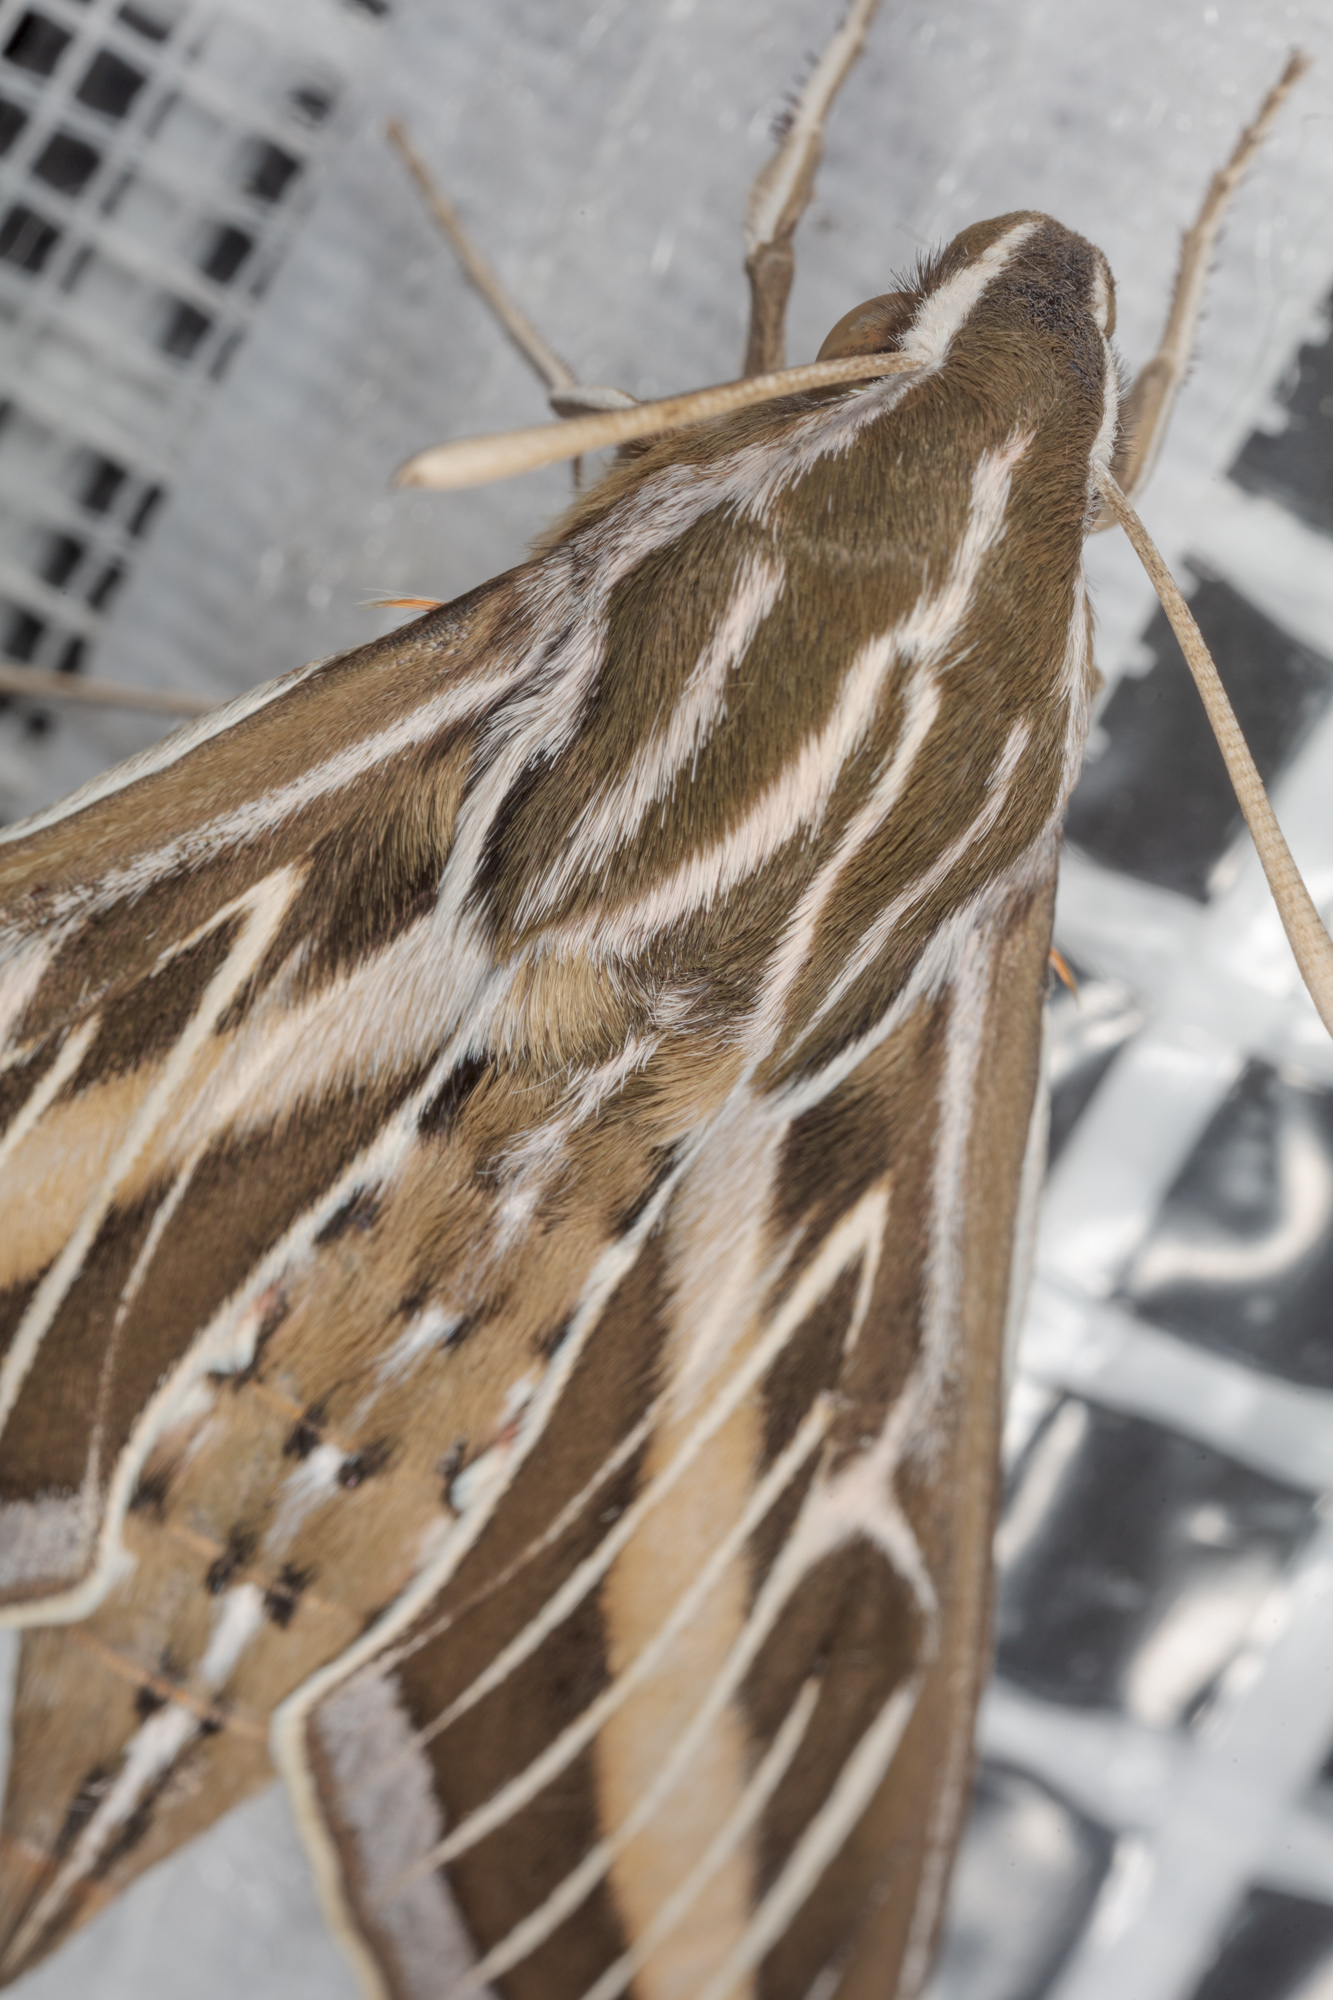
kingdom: Animalia
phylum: Arthropoda
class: Insecta
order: Lepidoptera
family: Sphingidae
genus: Hyles
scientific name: Hyles lineata
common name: White-lined sphinx
